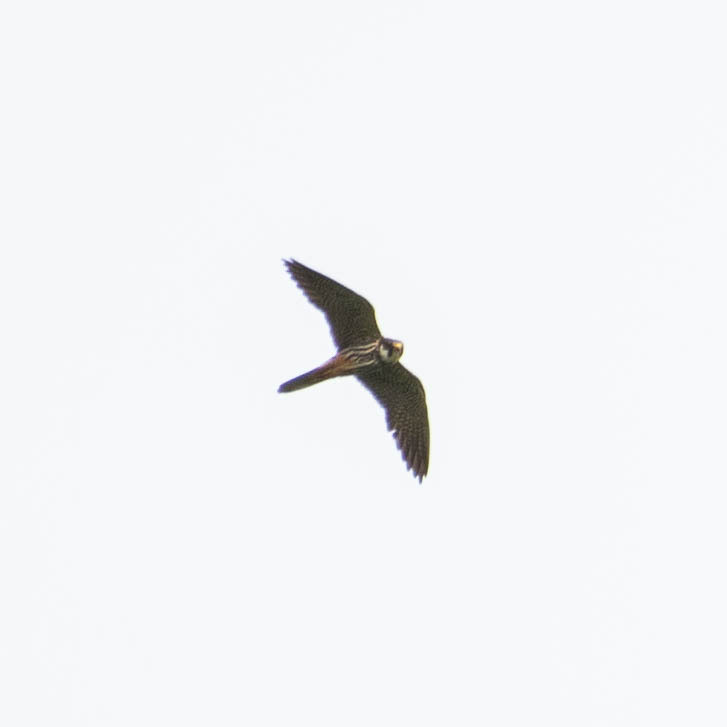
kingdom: Animalia
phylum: Chordata
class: Aves
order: Falconiformes
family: Falconidae
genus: Falco
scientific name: Falco subbuteo
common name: Eurasian hobby
